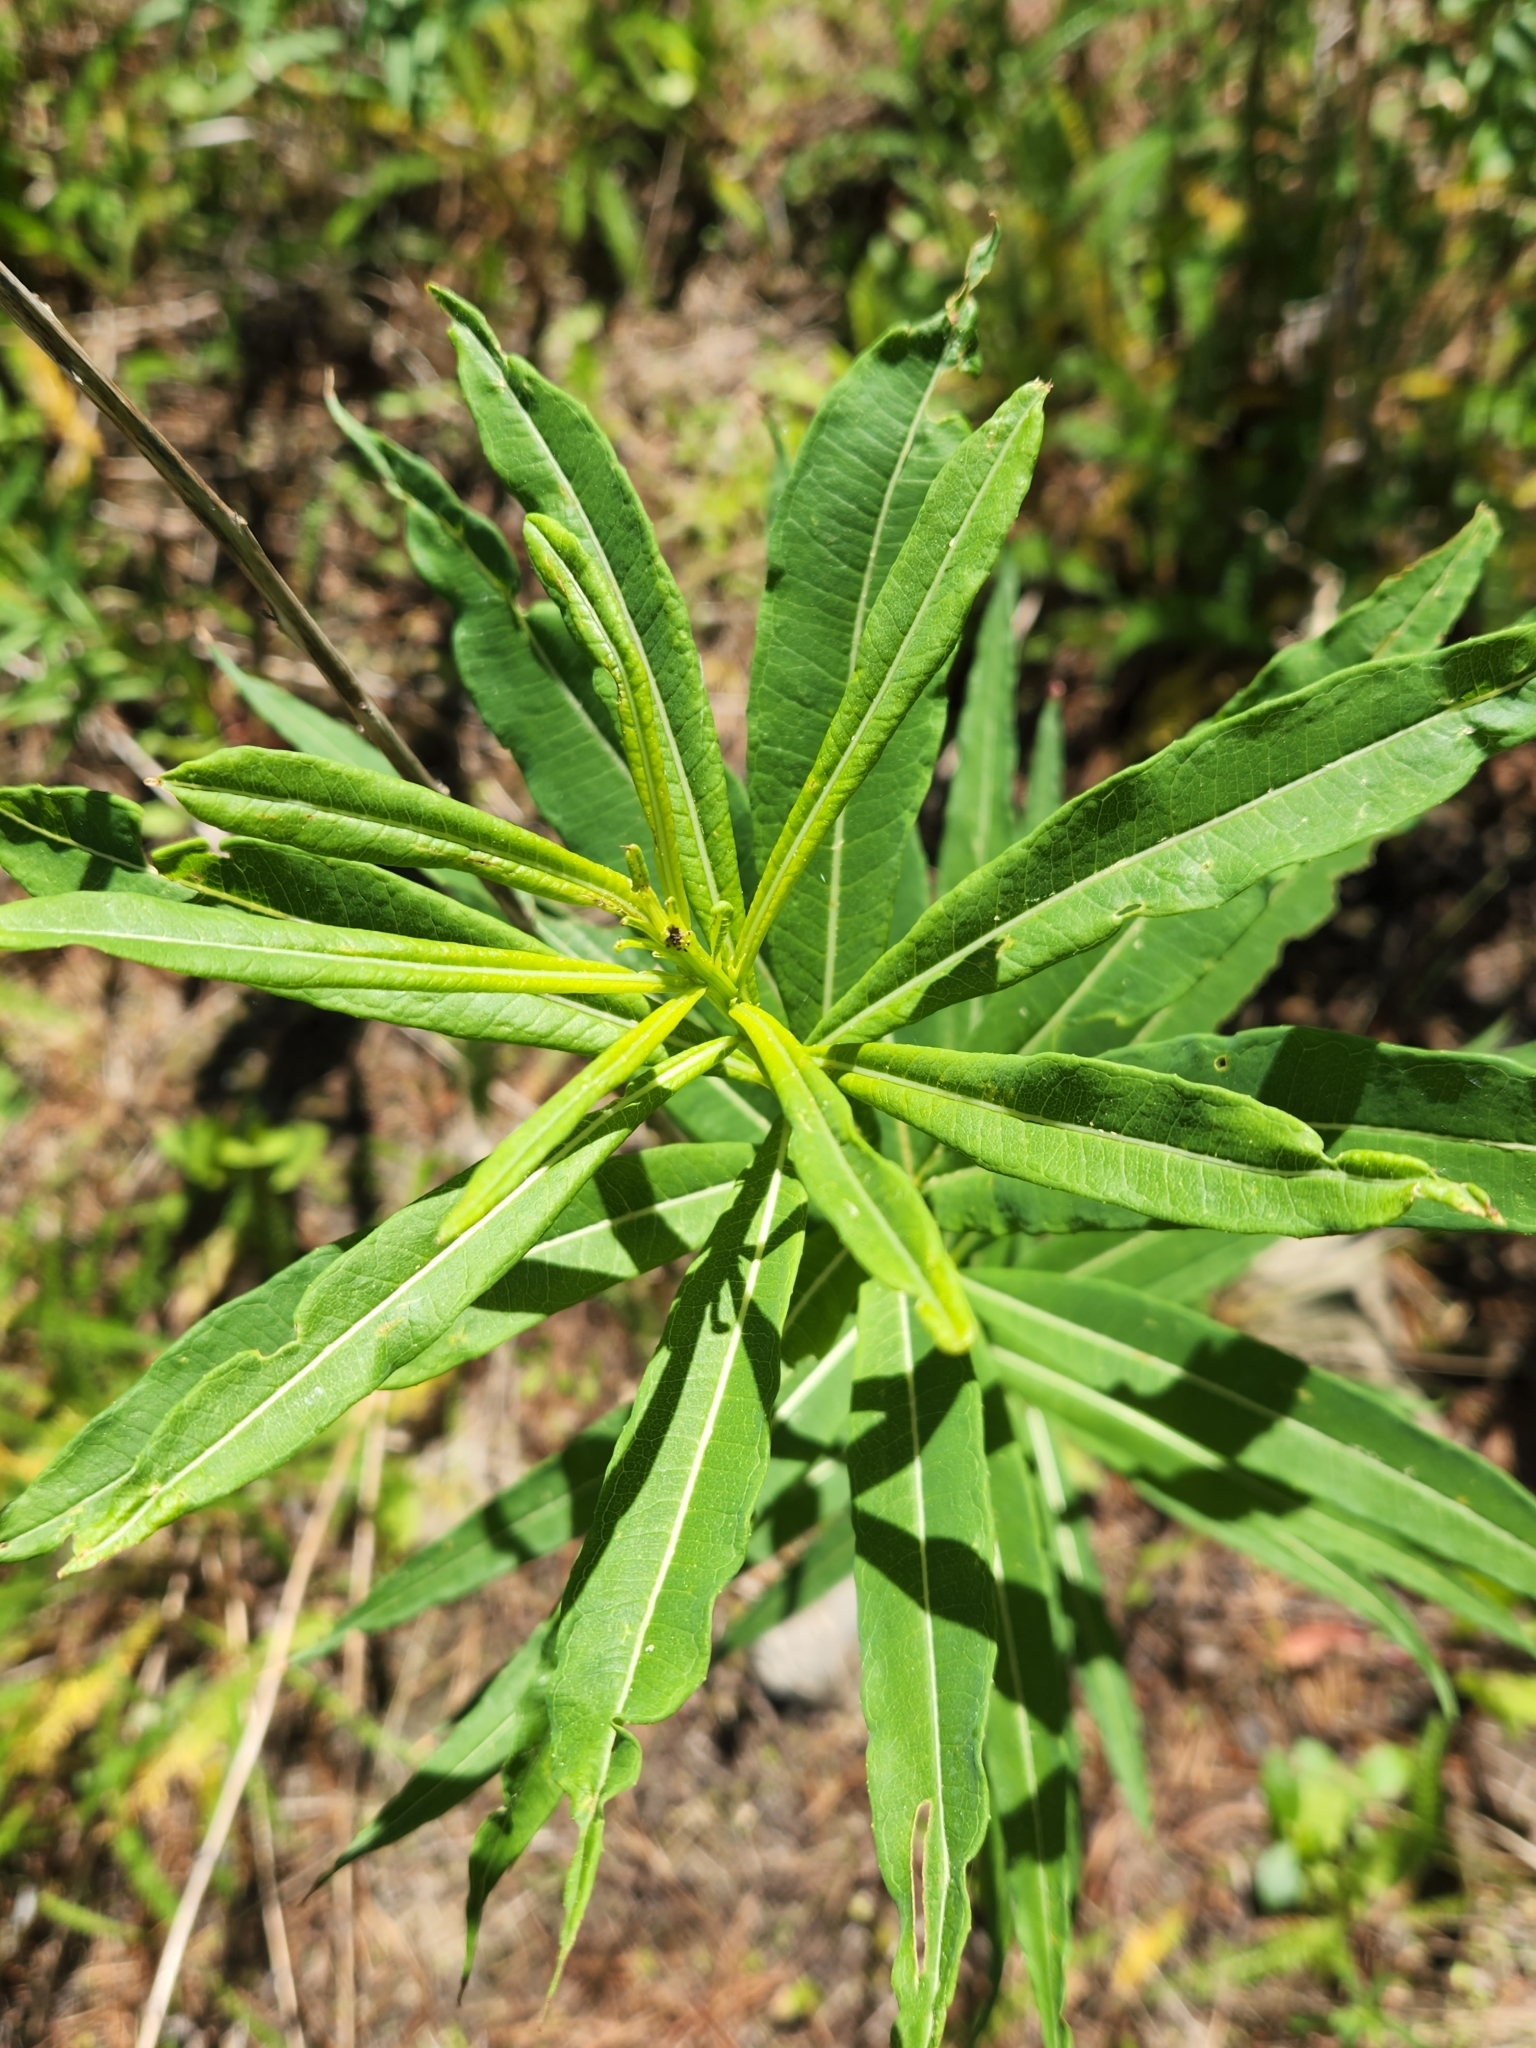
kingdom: Plantae
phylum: Tracheophyta
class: Magnoliopsida
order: Myrtales
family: Onagraceae
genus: Chamaenerion
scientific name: Chamaenerion angustifolium
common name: Fireweed
